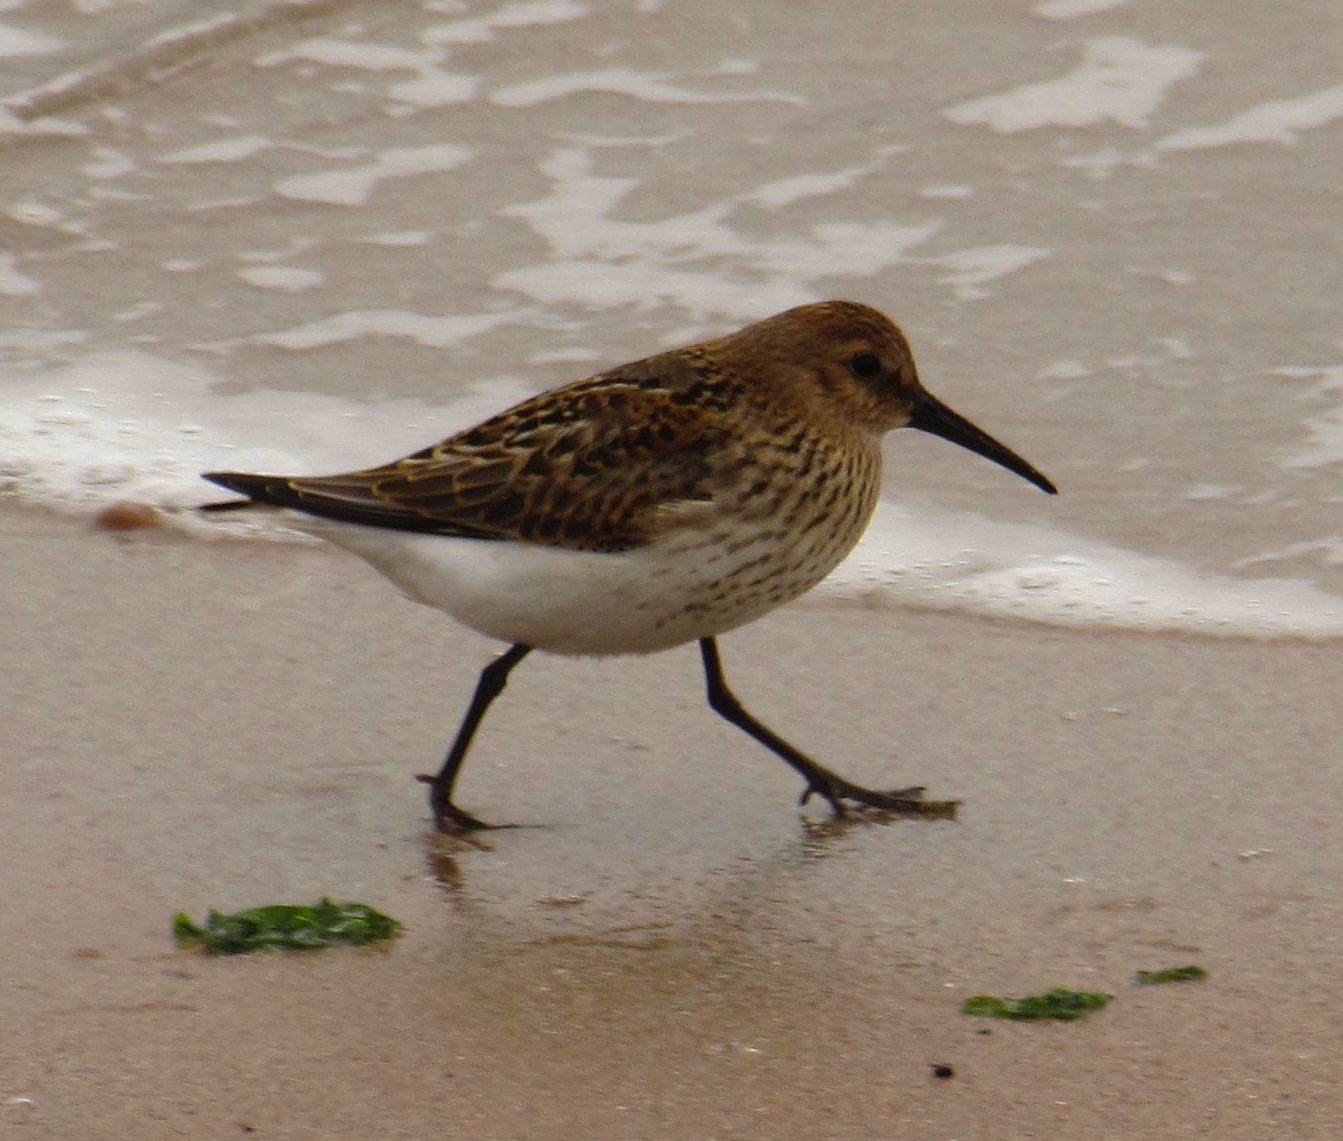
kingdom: Animalia
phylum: Chordata
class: Aves
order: Charadriiformes
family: Scolopacidae
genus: Calidris
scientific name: Calidris alpina
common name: Dunlin
